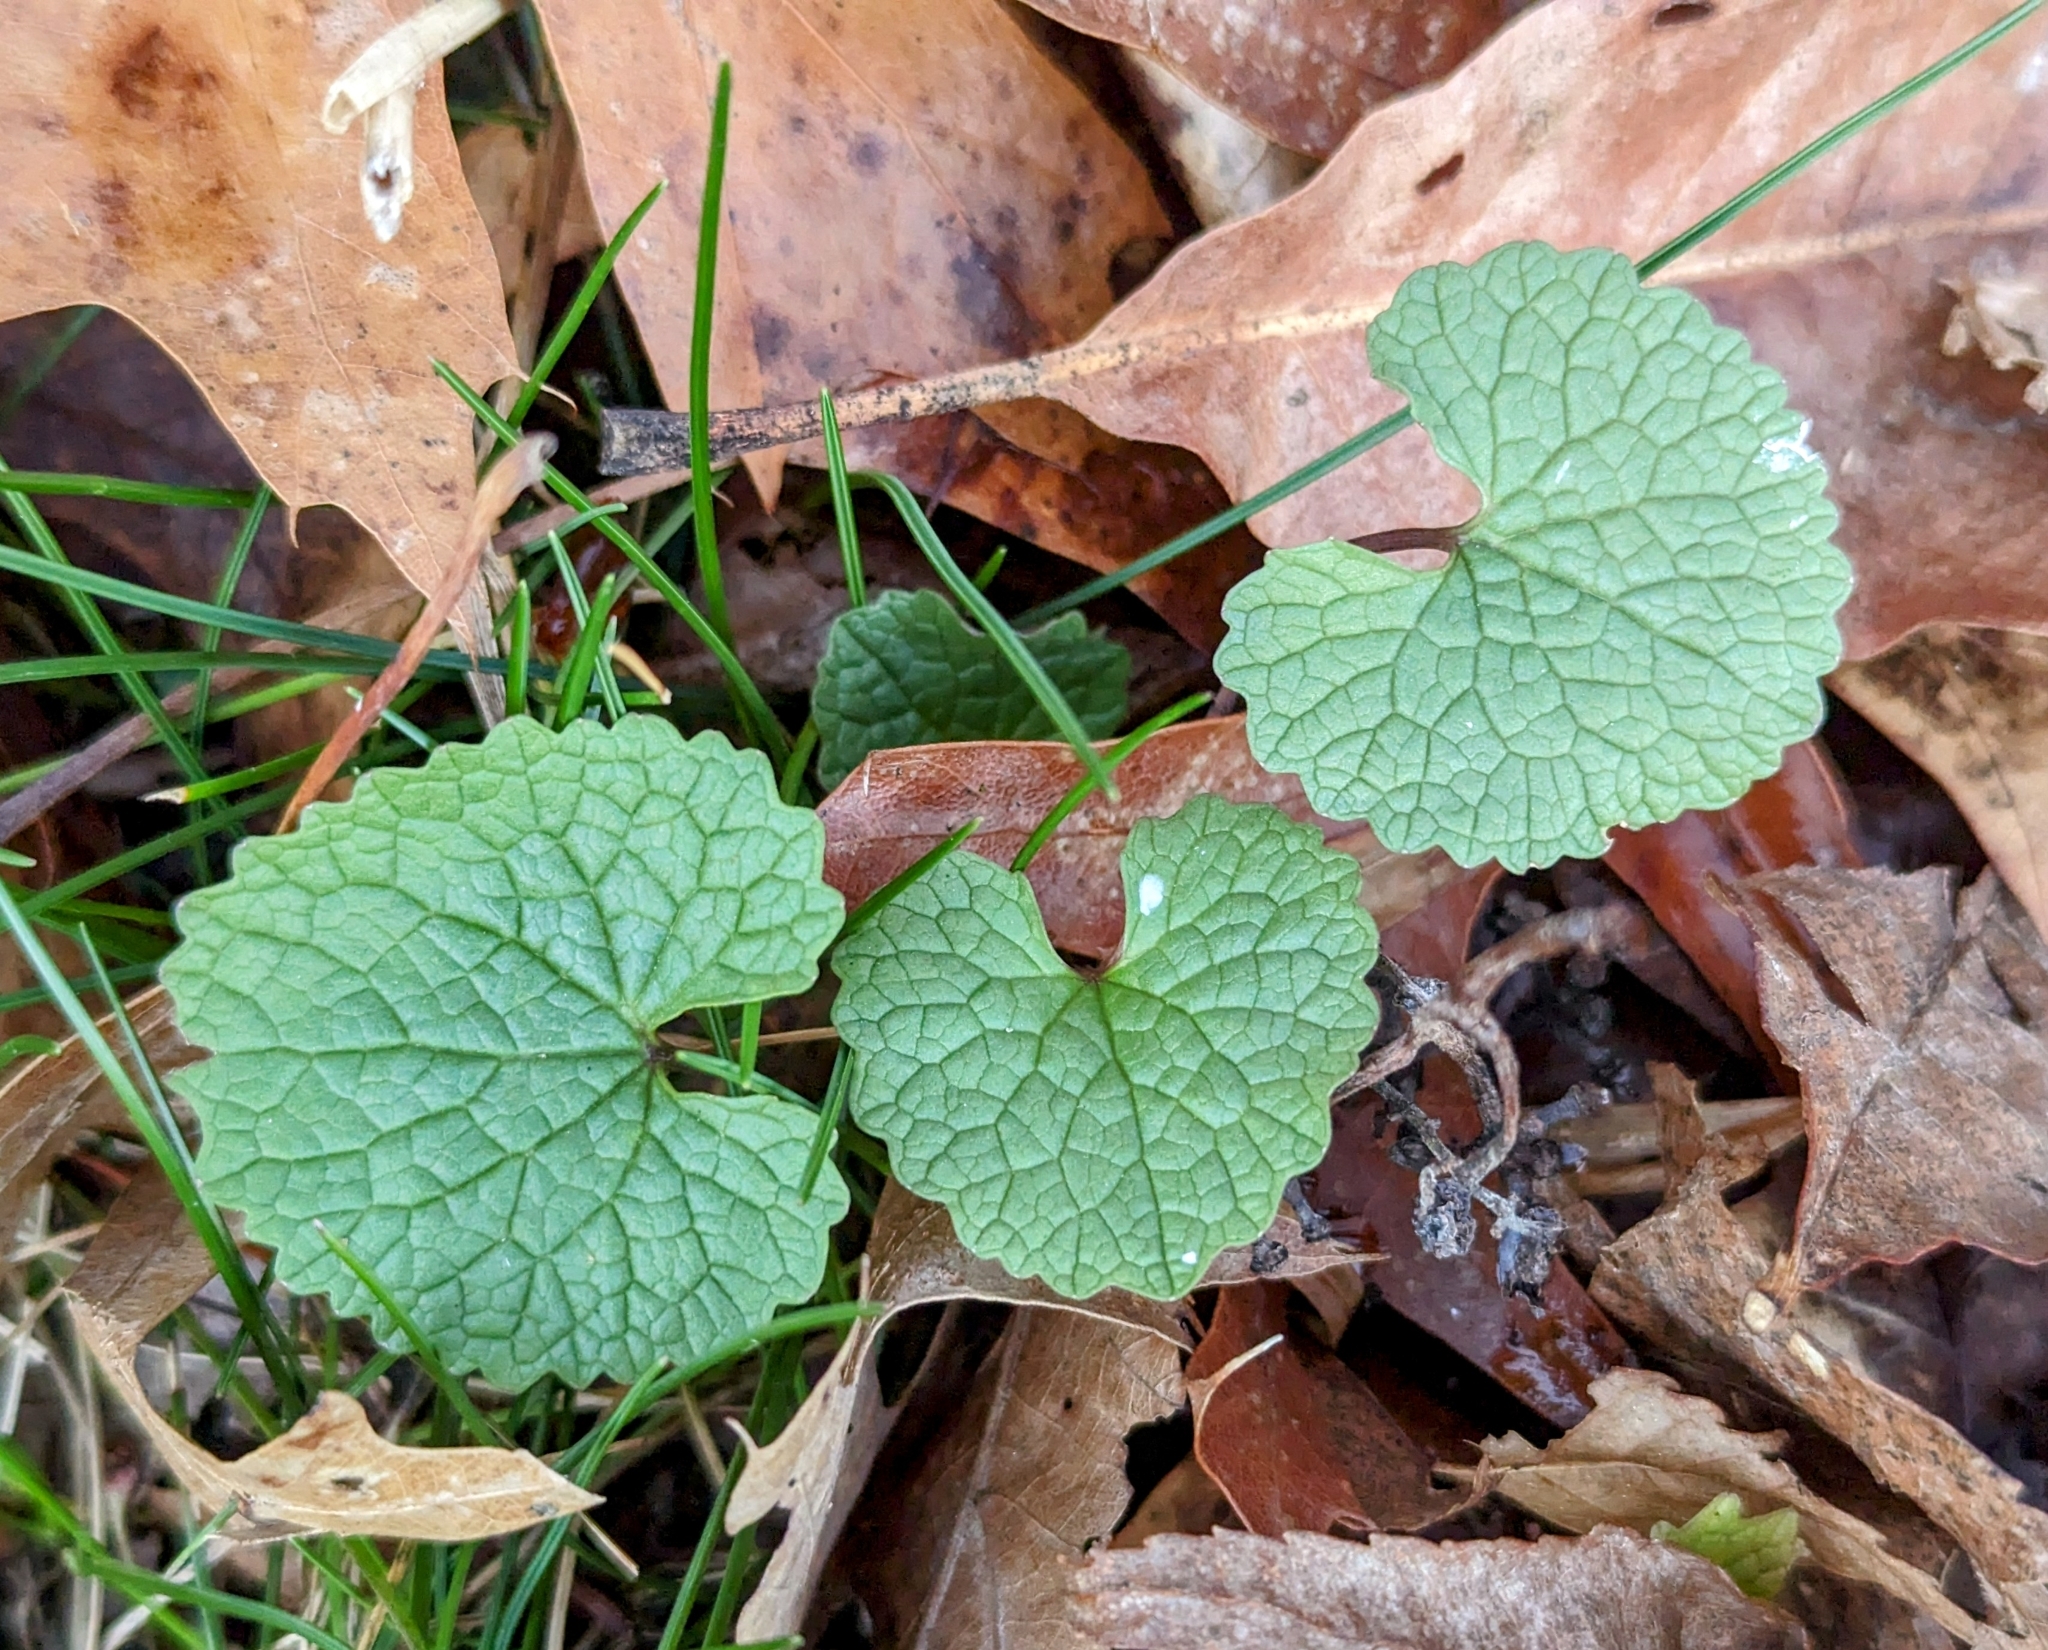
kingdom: Plantae
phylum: Tracheophyta
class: Magnoliopsida
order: Brassicales
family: Brassicaceae
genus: Alliaria
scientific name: Alliaria petiolata
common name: Garlic mustard
